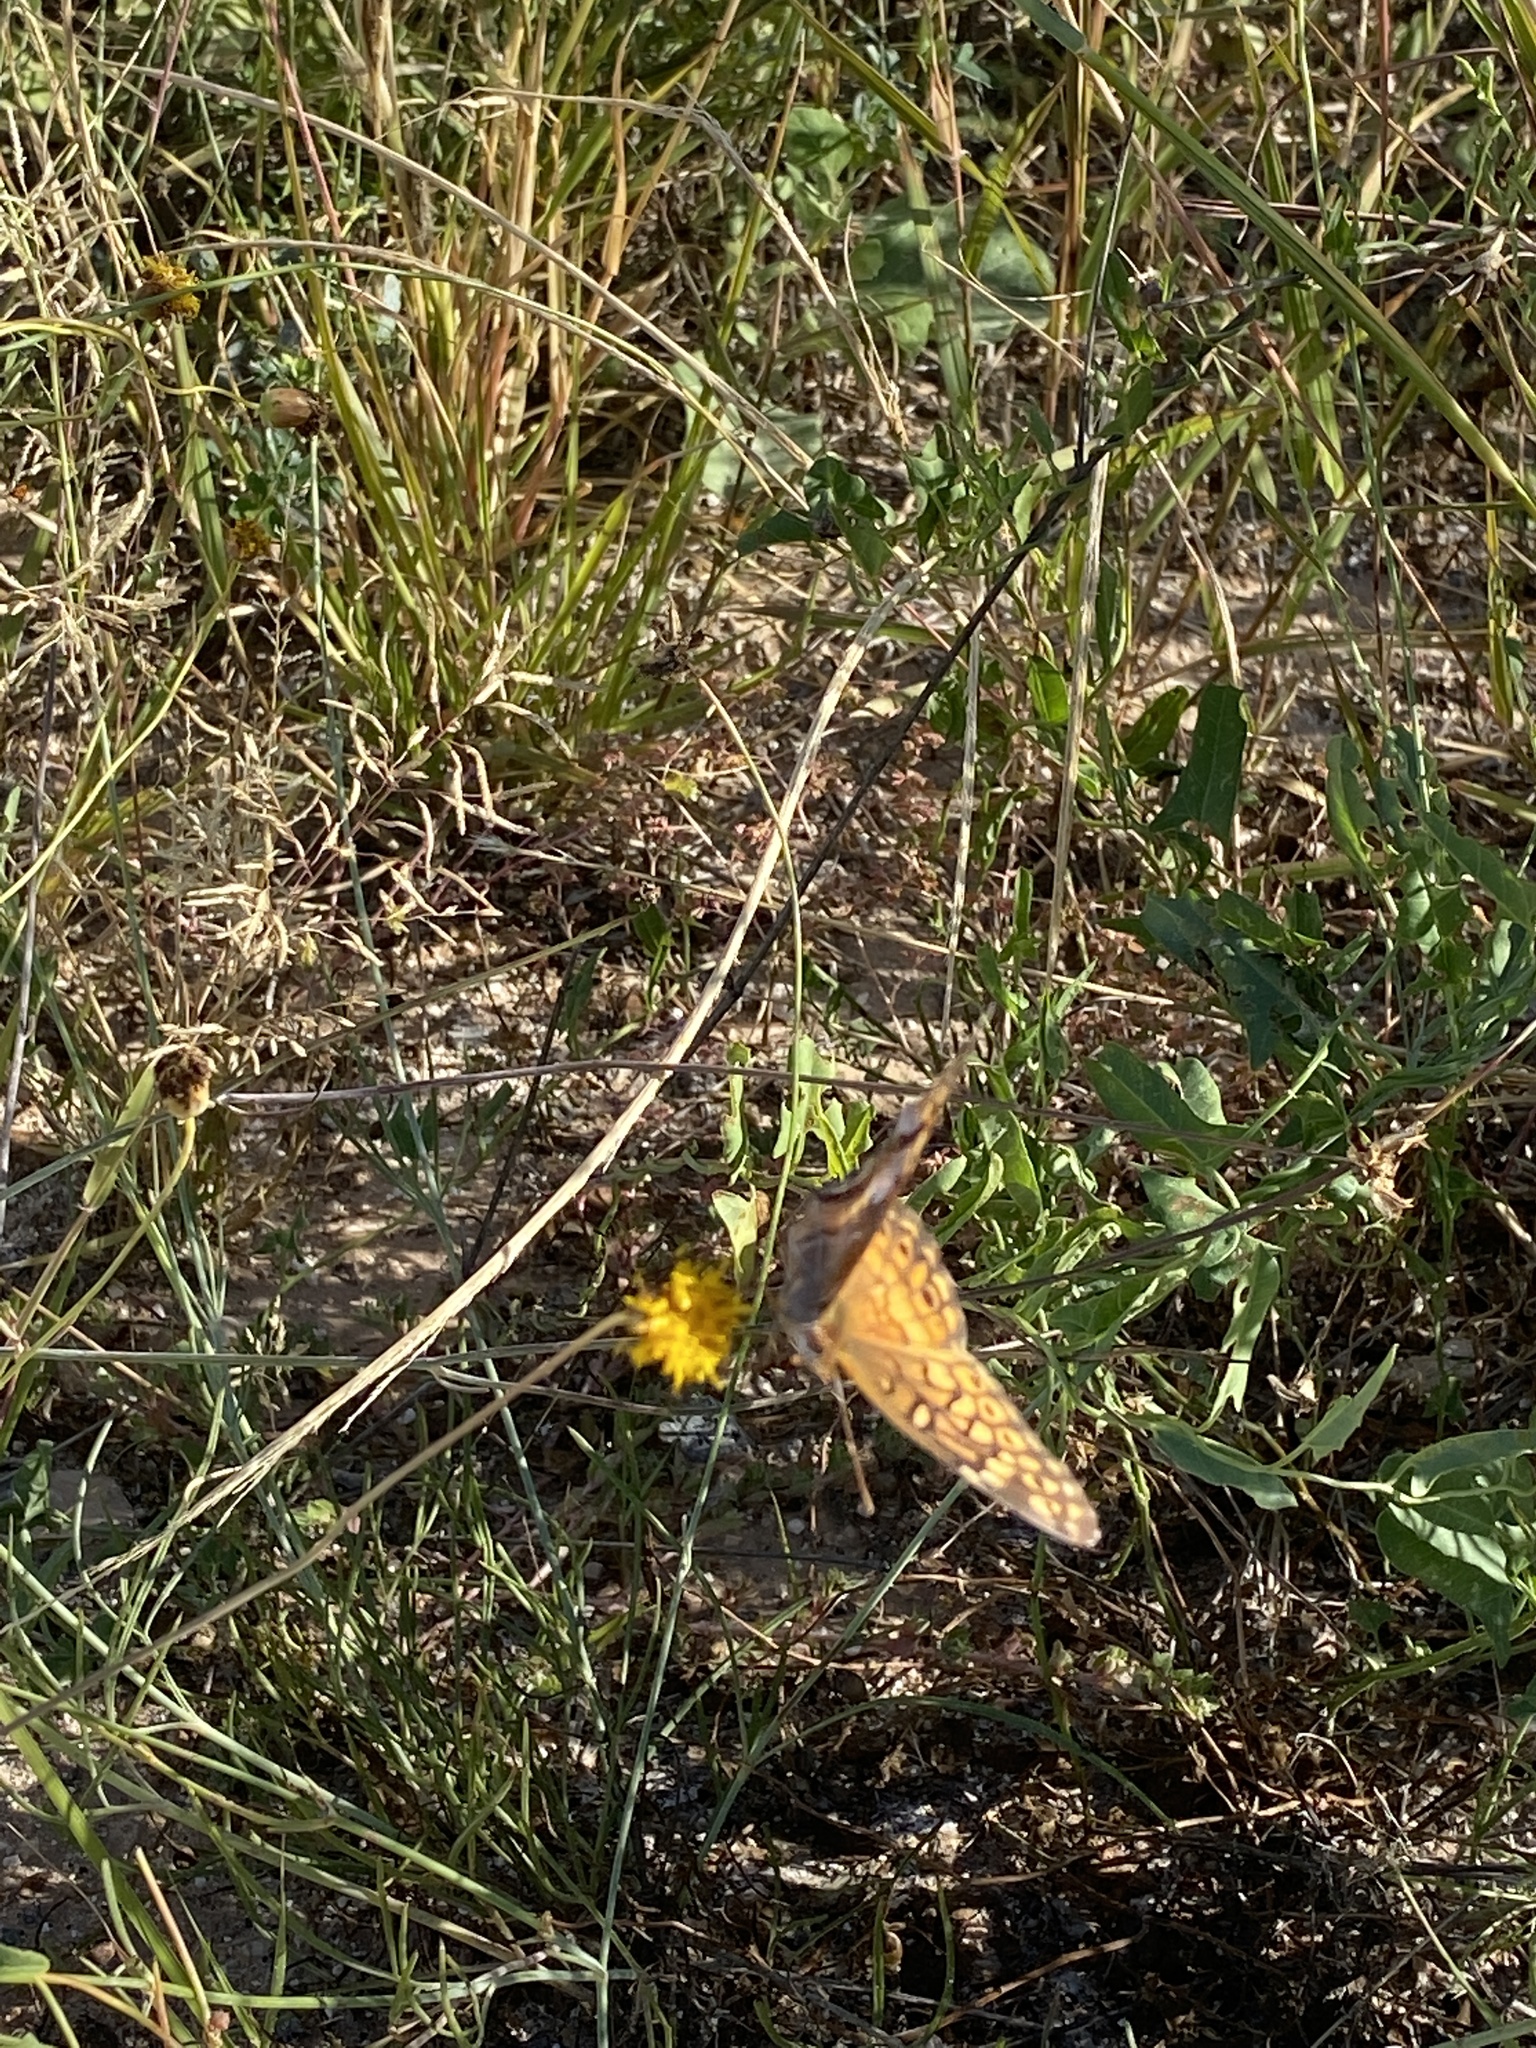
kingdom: Animalia
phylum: Arthropoda
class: Insecta
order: Lepidoptera
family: Nymphalidae
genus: Euptoieta
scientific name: Euptoieta claudia
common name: Variegated fritillary
